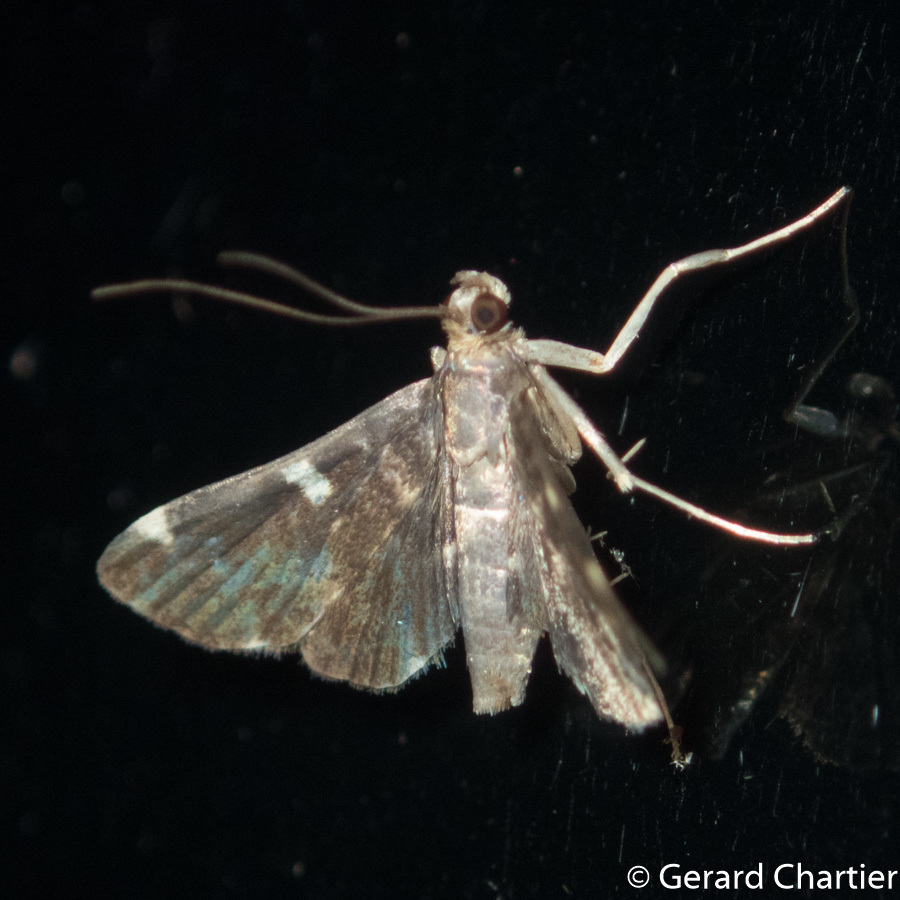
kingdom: Animalia
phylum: Arthropoda
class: Insecta
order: Lepidoptera
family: Crambidae
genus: Piletocera
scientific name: Piletocera aegimiusalis
